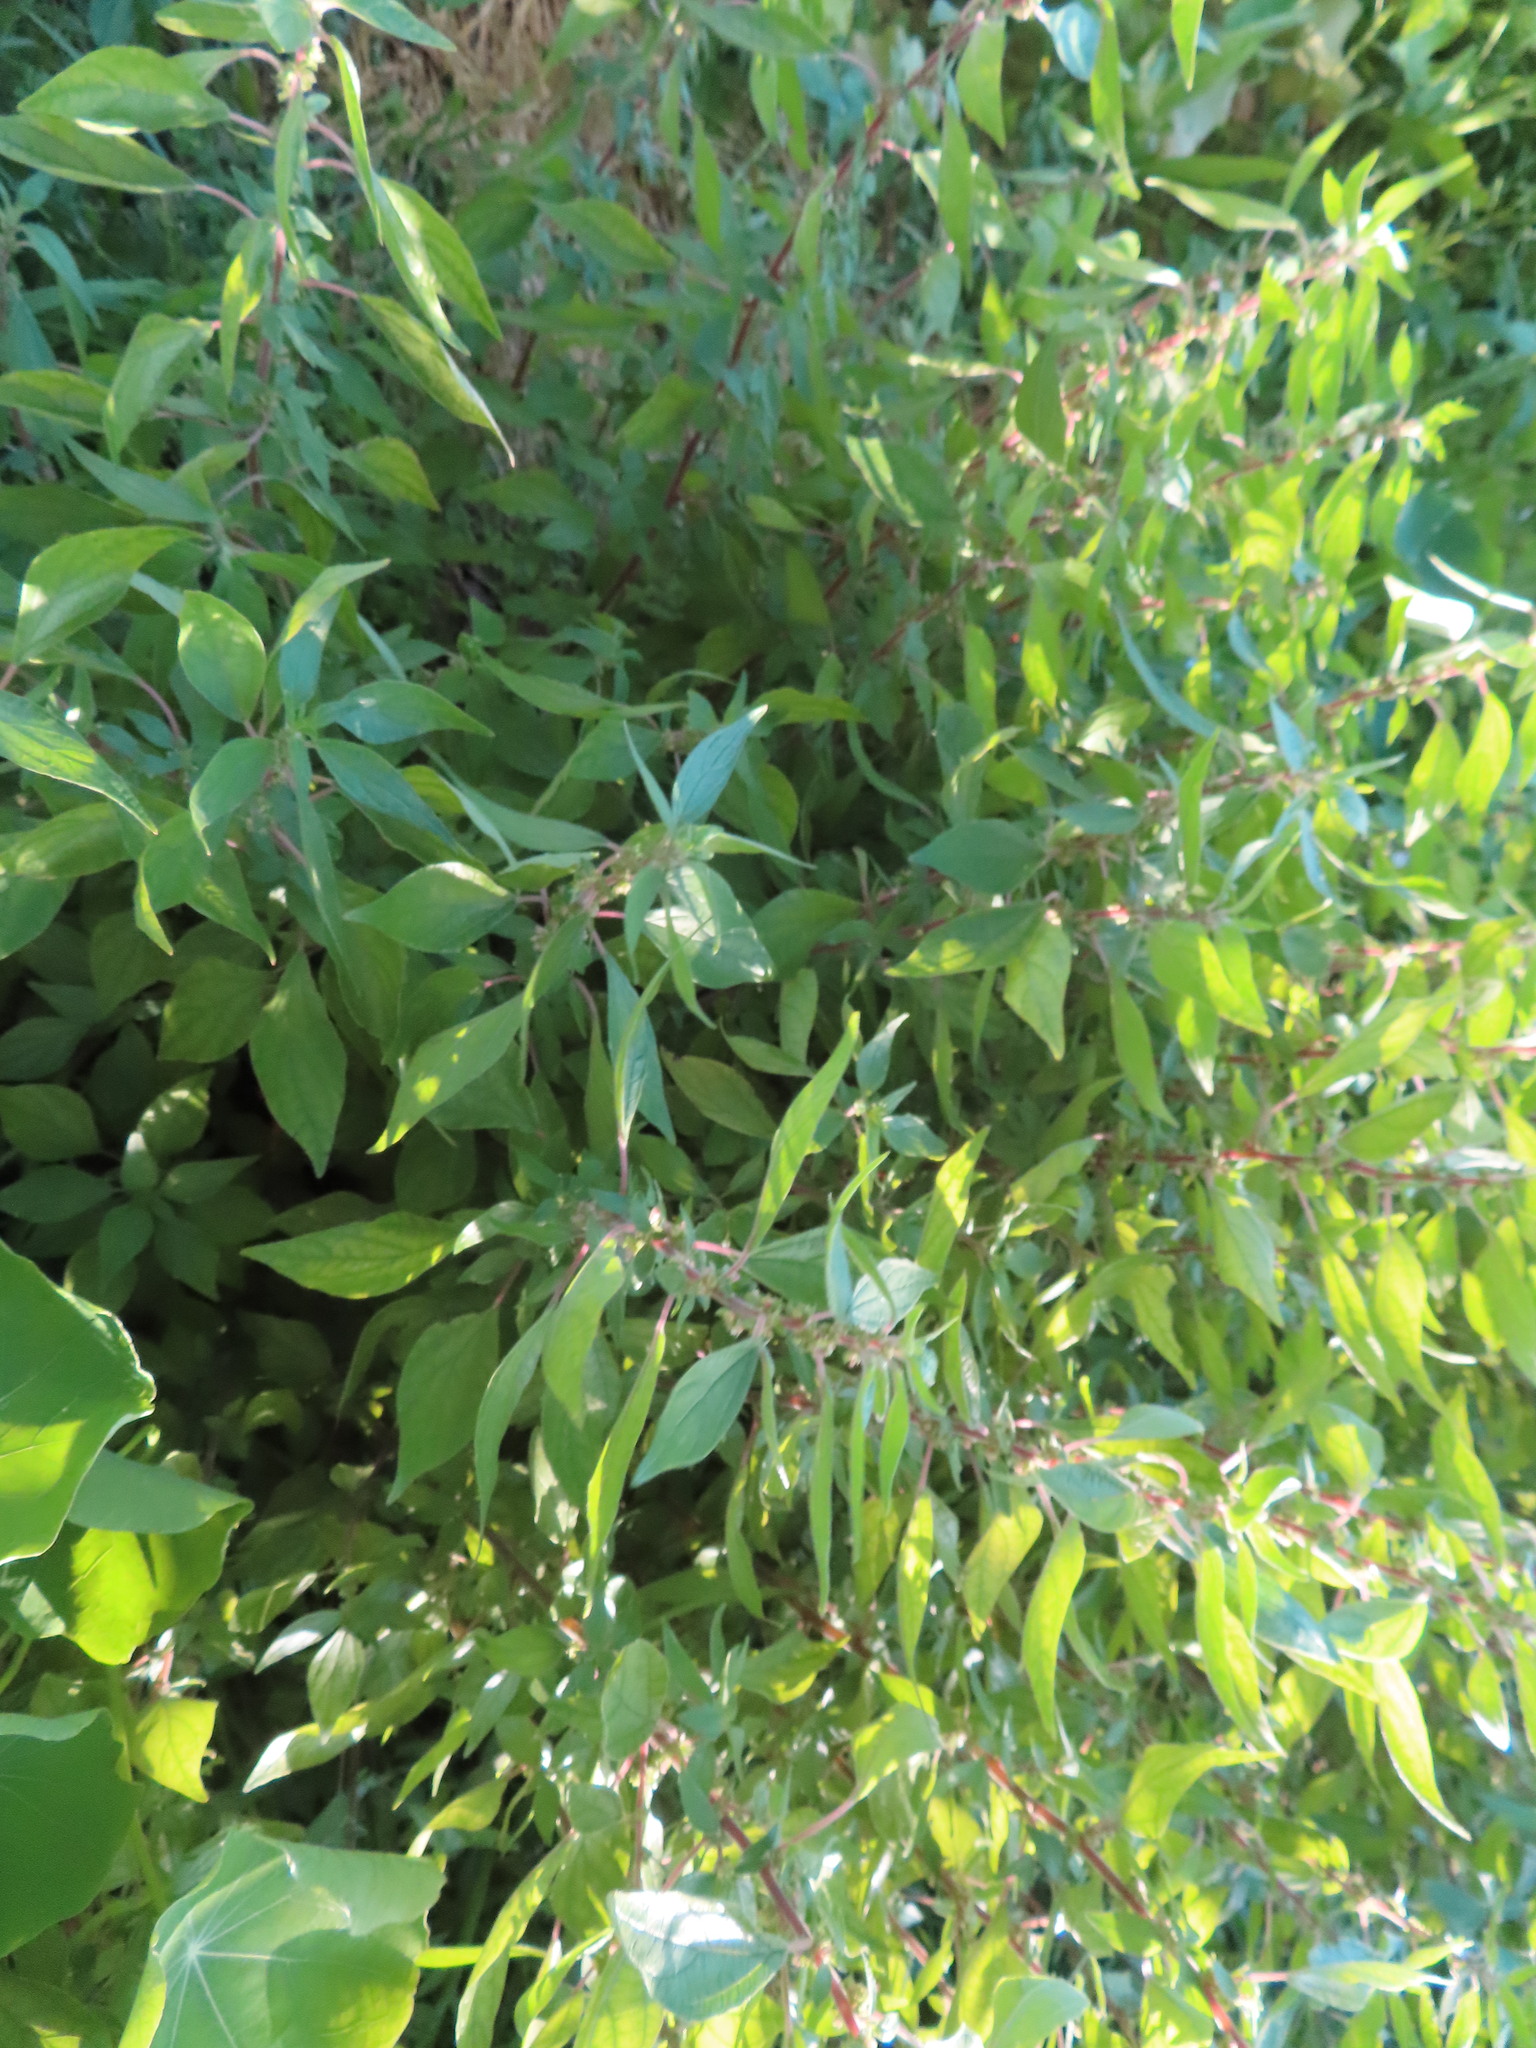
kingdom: Plantae
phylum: Tracheophyta
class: Magnoliopsida
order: Rosales
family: Urticaceae
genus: Parietaria
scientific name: Parietaria judaica
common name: Pellitory-of-the-wall
